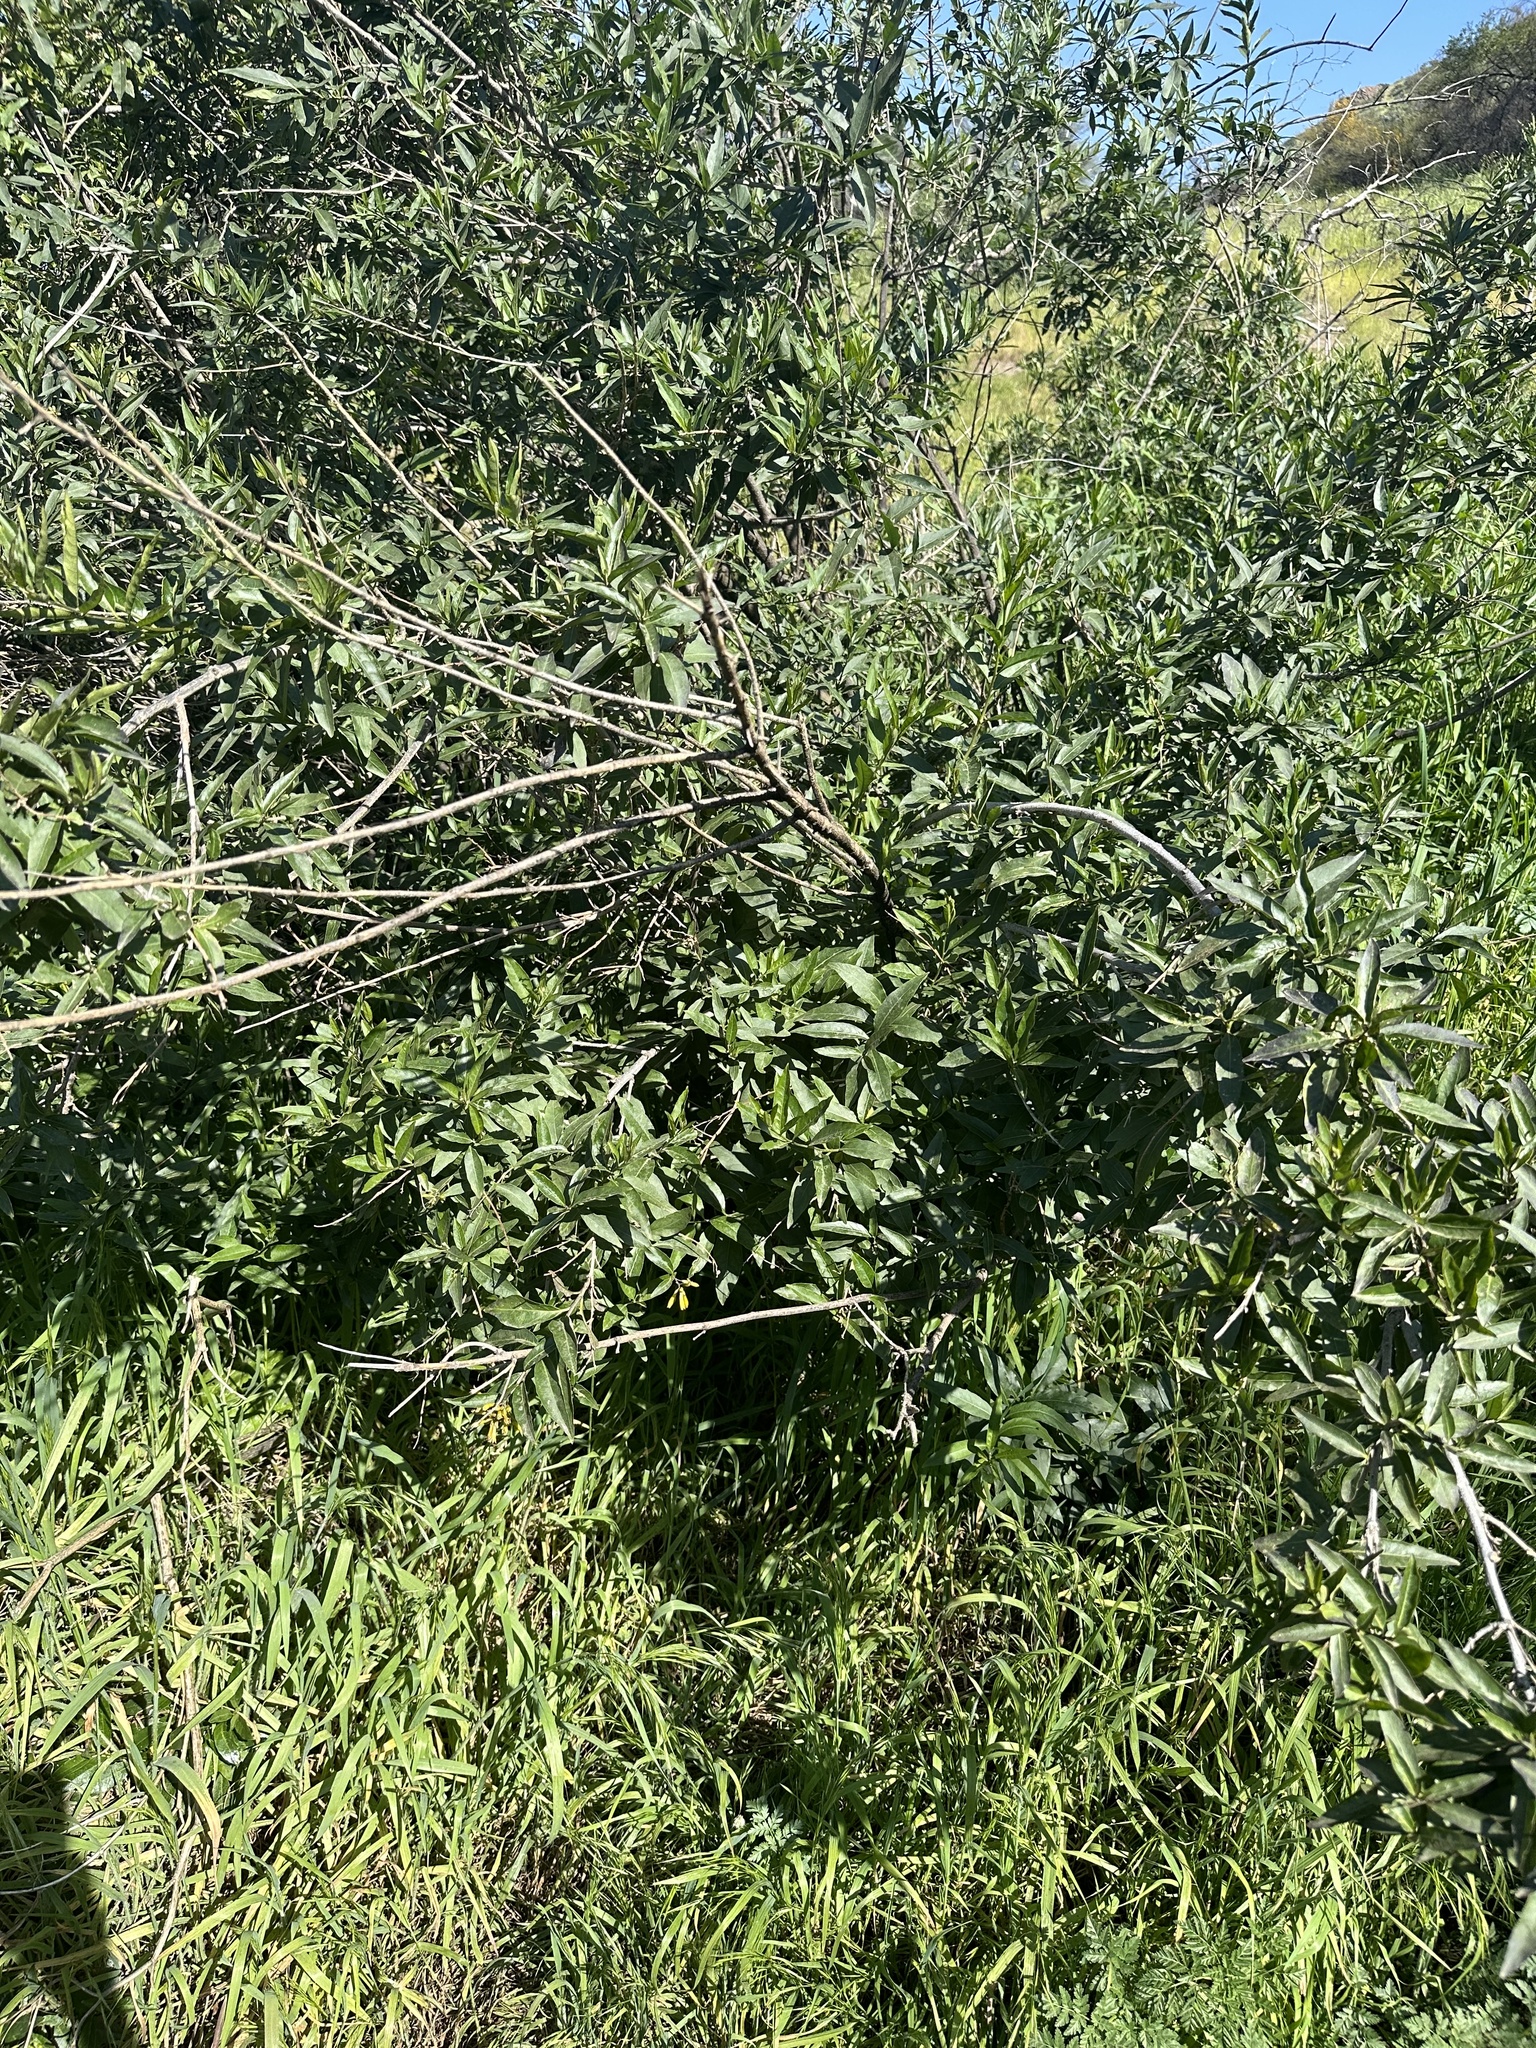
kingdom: Plantae
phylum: Tracheophyta
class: Magnoliopsida
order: Solanales
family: Solanaceae
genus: Cestrum
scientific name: Cestrum parqui
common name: Chilean cestrum
